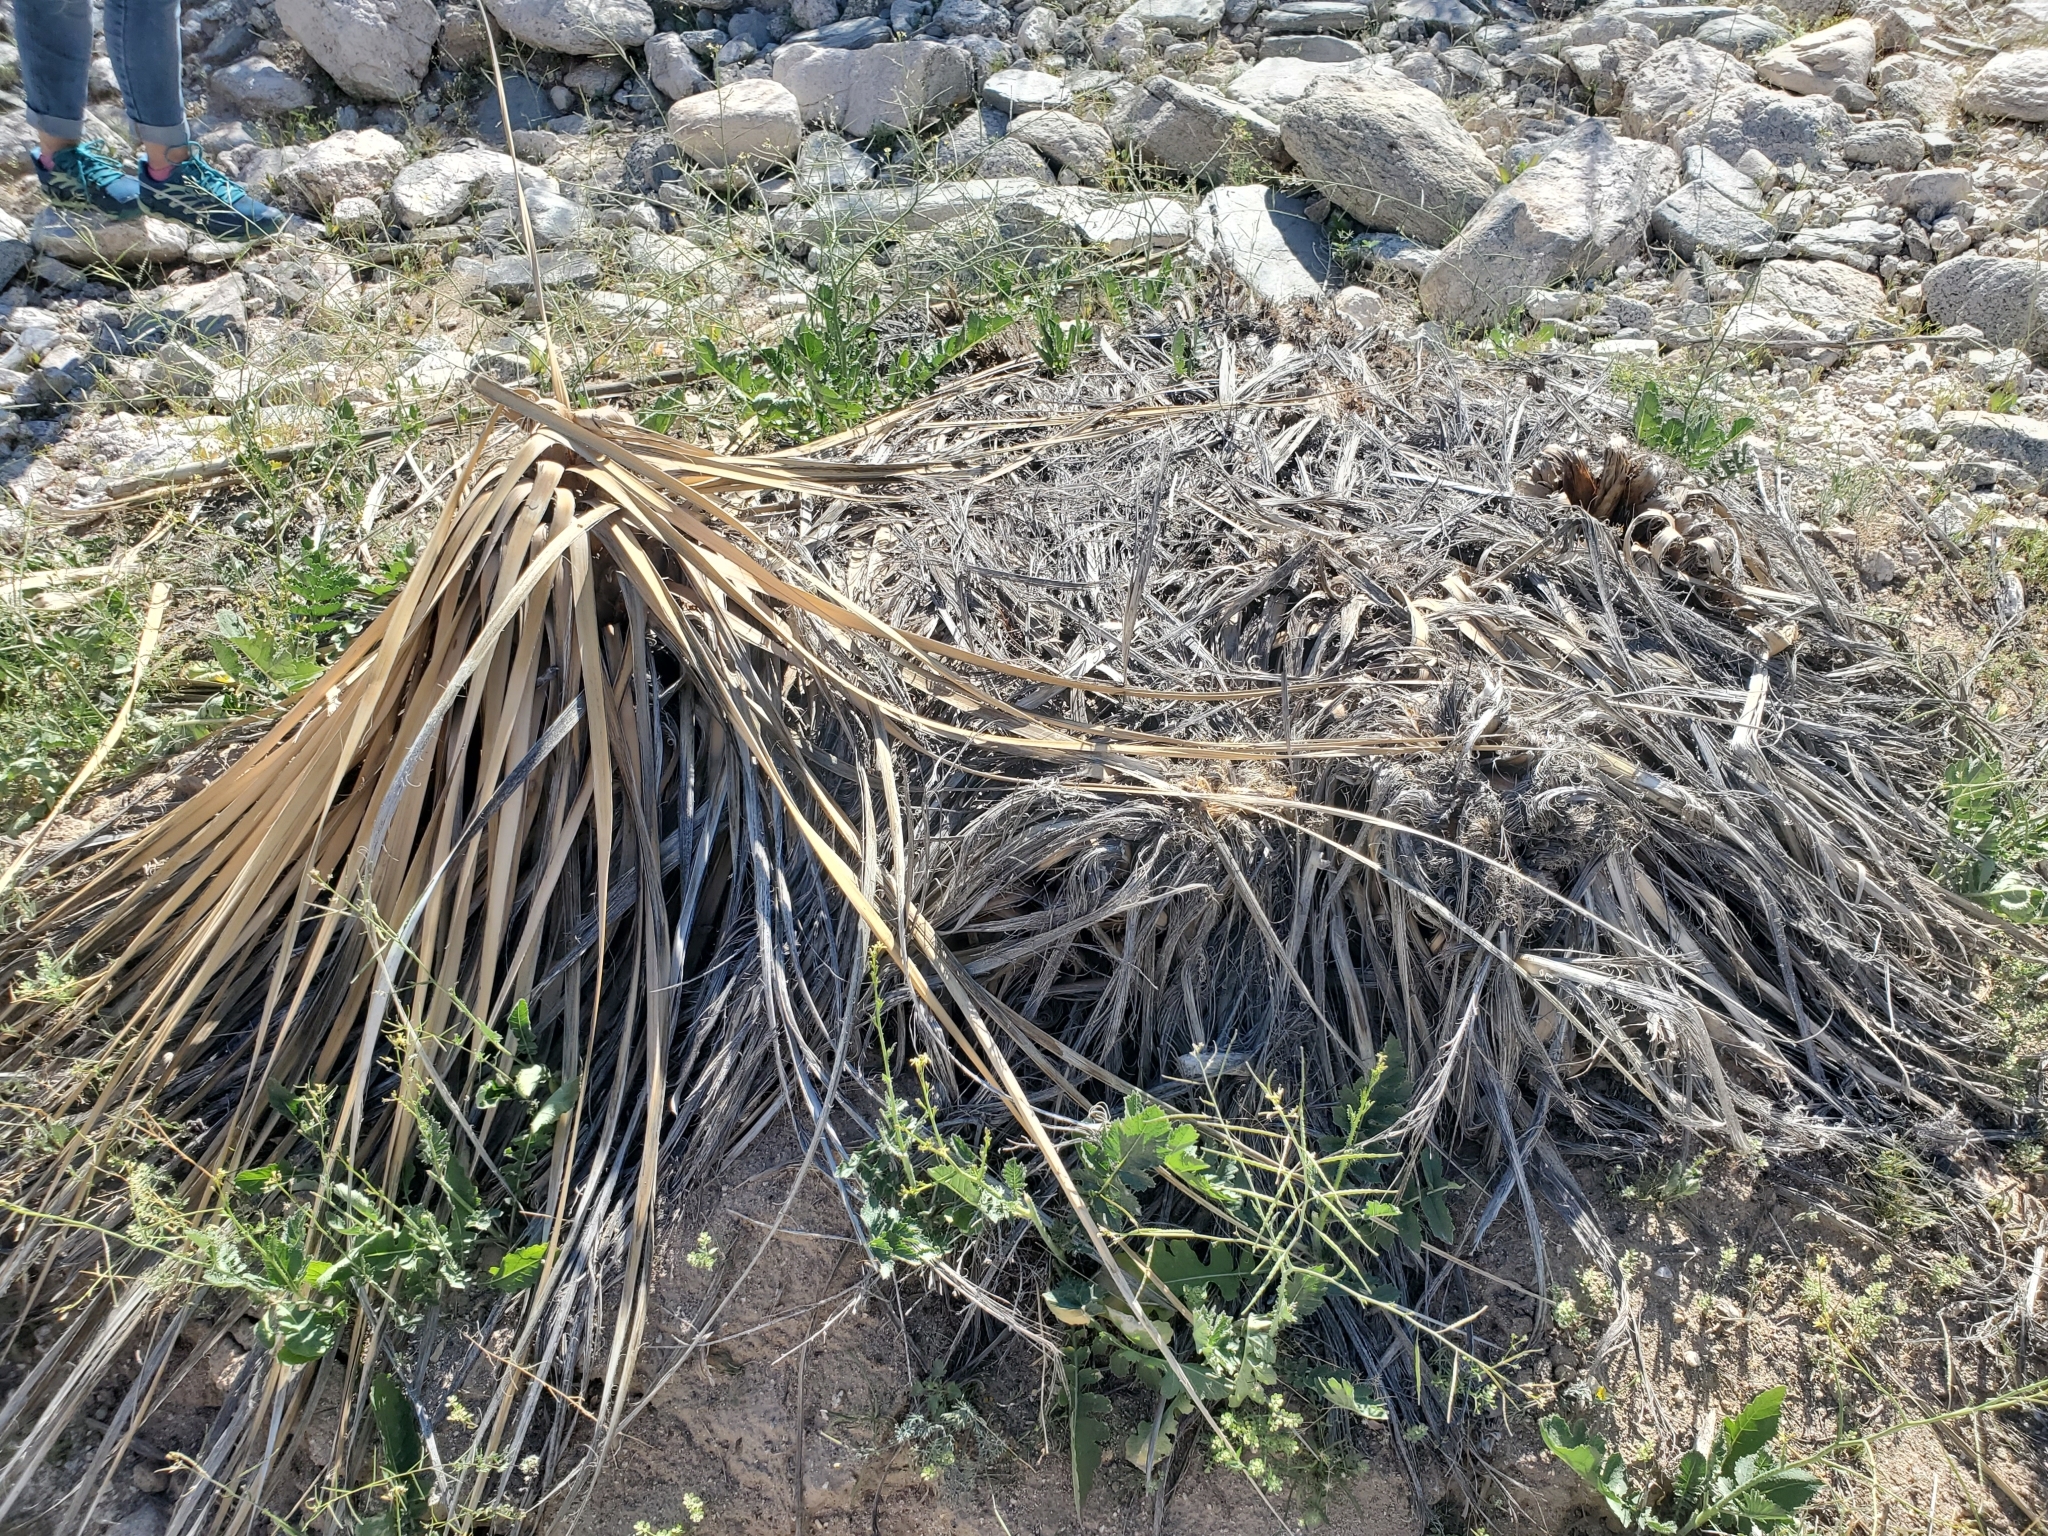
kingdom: Plantae
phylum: Tracheophyta
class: Liliopsida
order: Asparagales
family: Asparagaceae
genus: Nolina
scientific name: Nolina bigelovii
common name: Bigelow bear-grass
